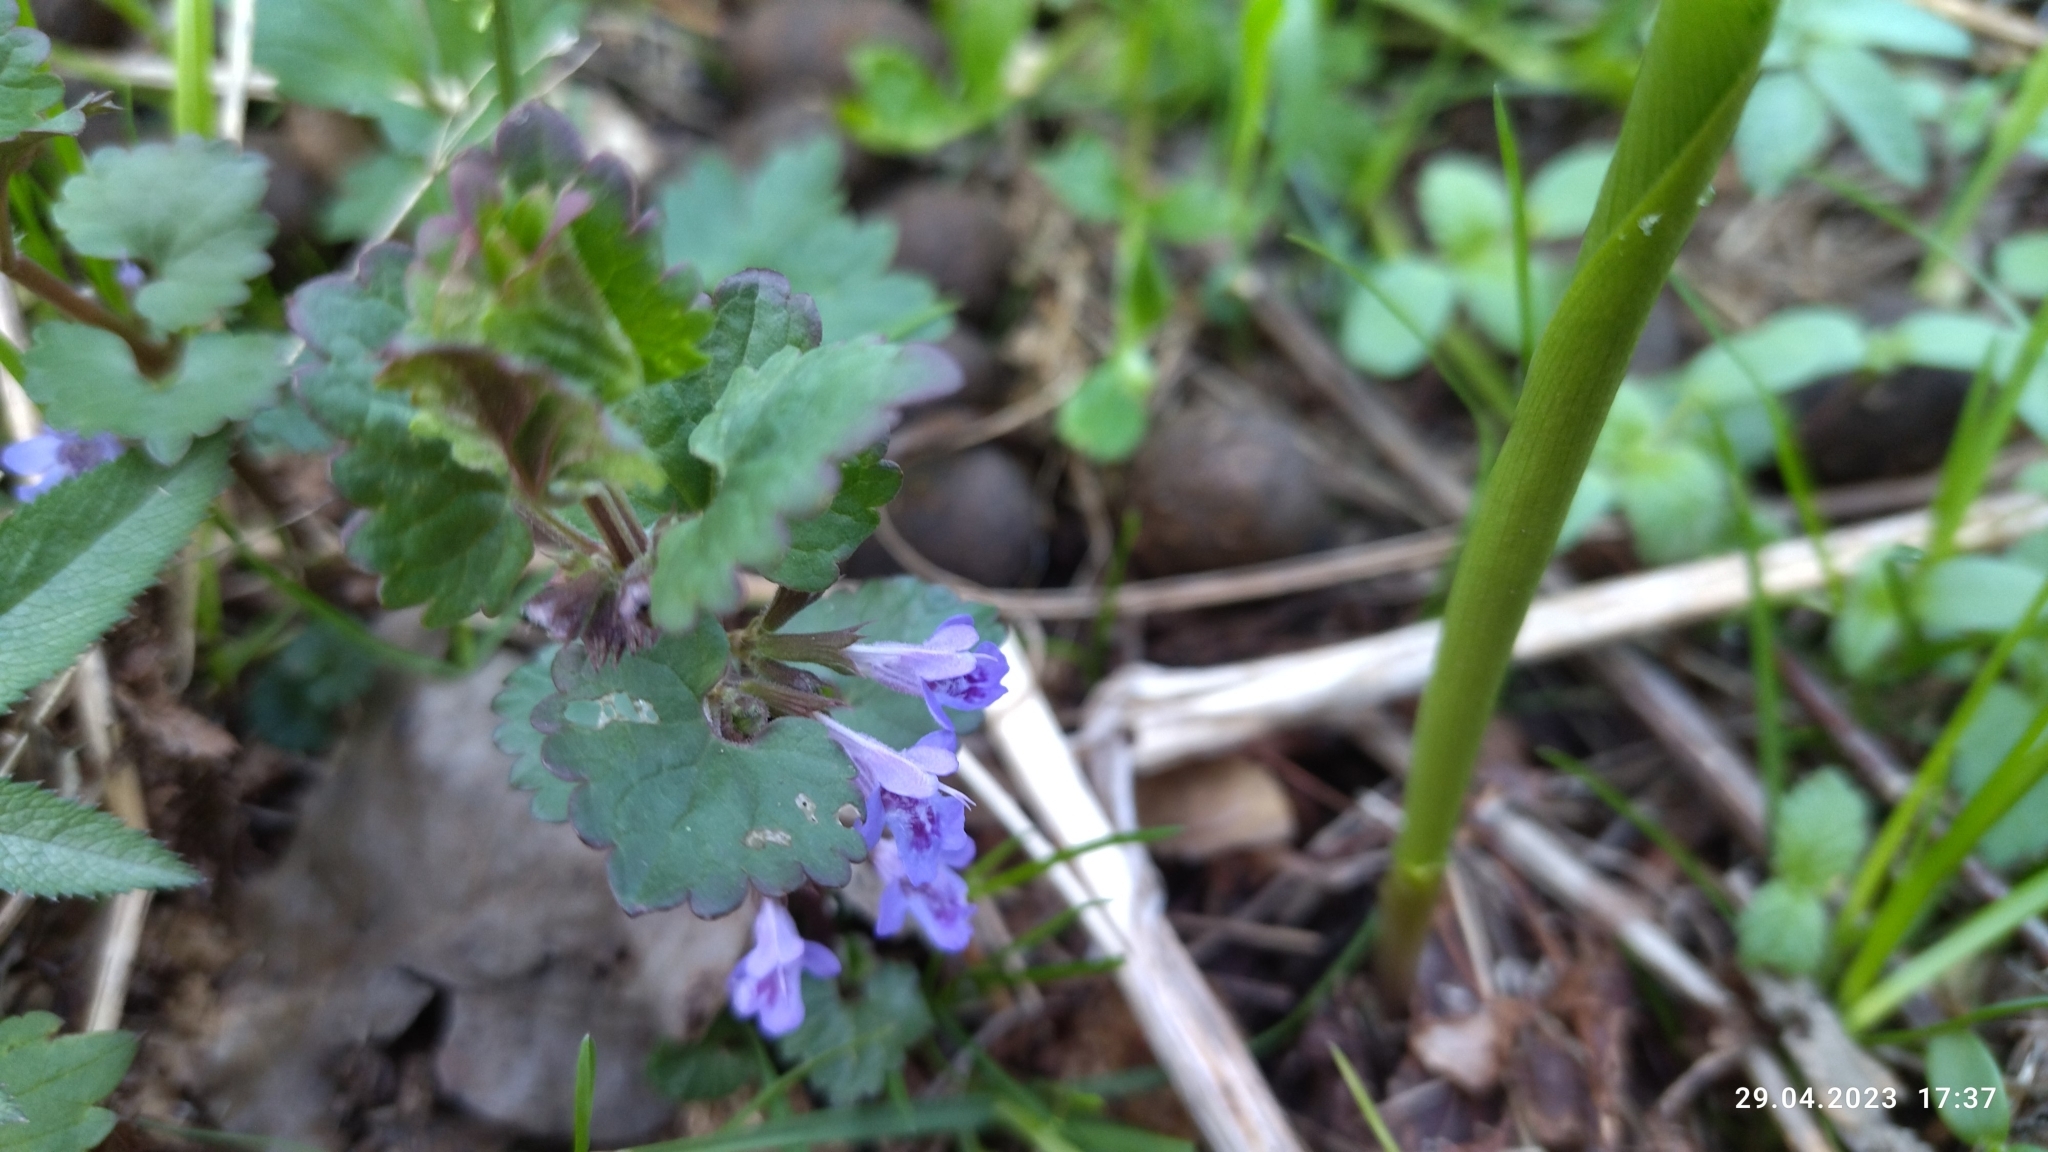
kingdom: Plantae
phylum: Tracheophyta
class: Magnoliopsida
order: Lamiales
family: Lamiaceae
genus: Glechoma
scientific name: Glechoma hederacea
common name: Ground ivy
